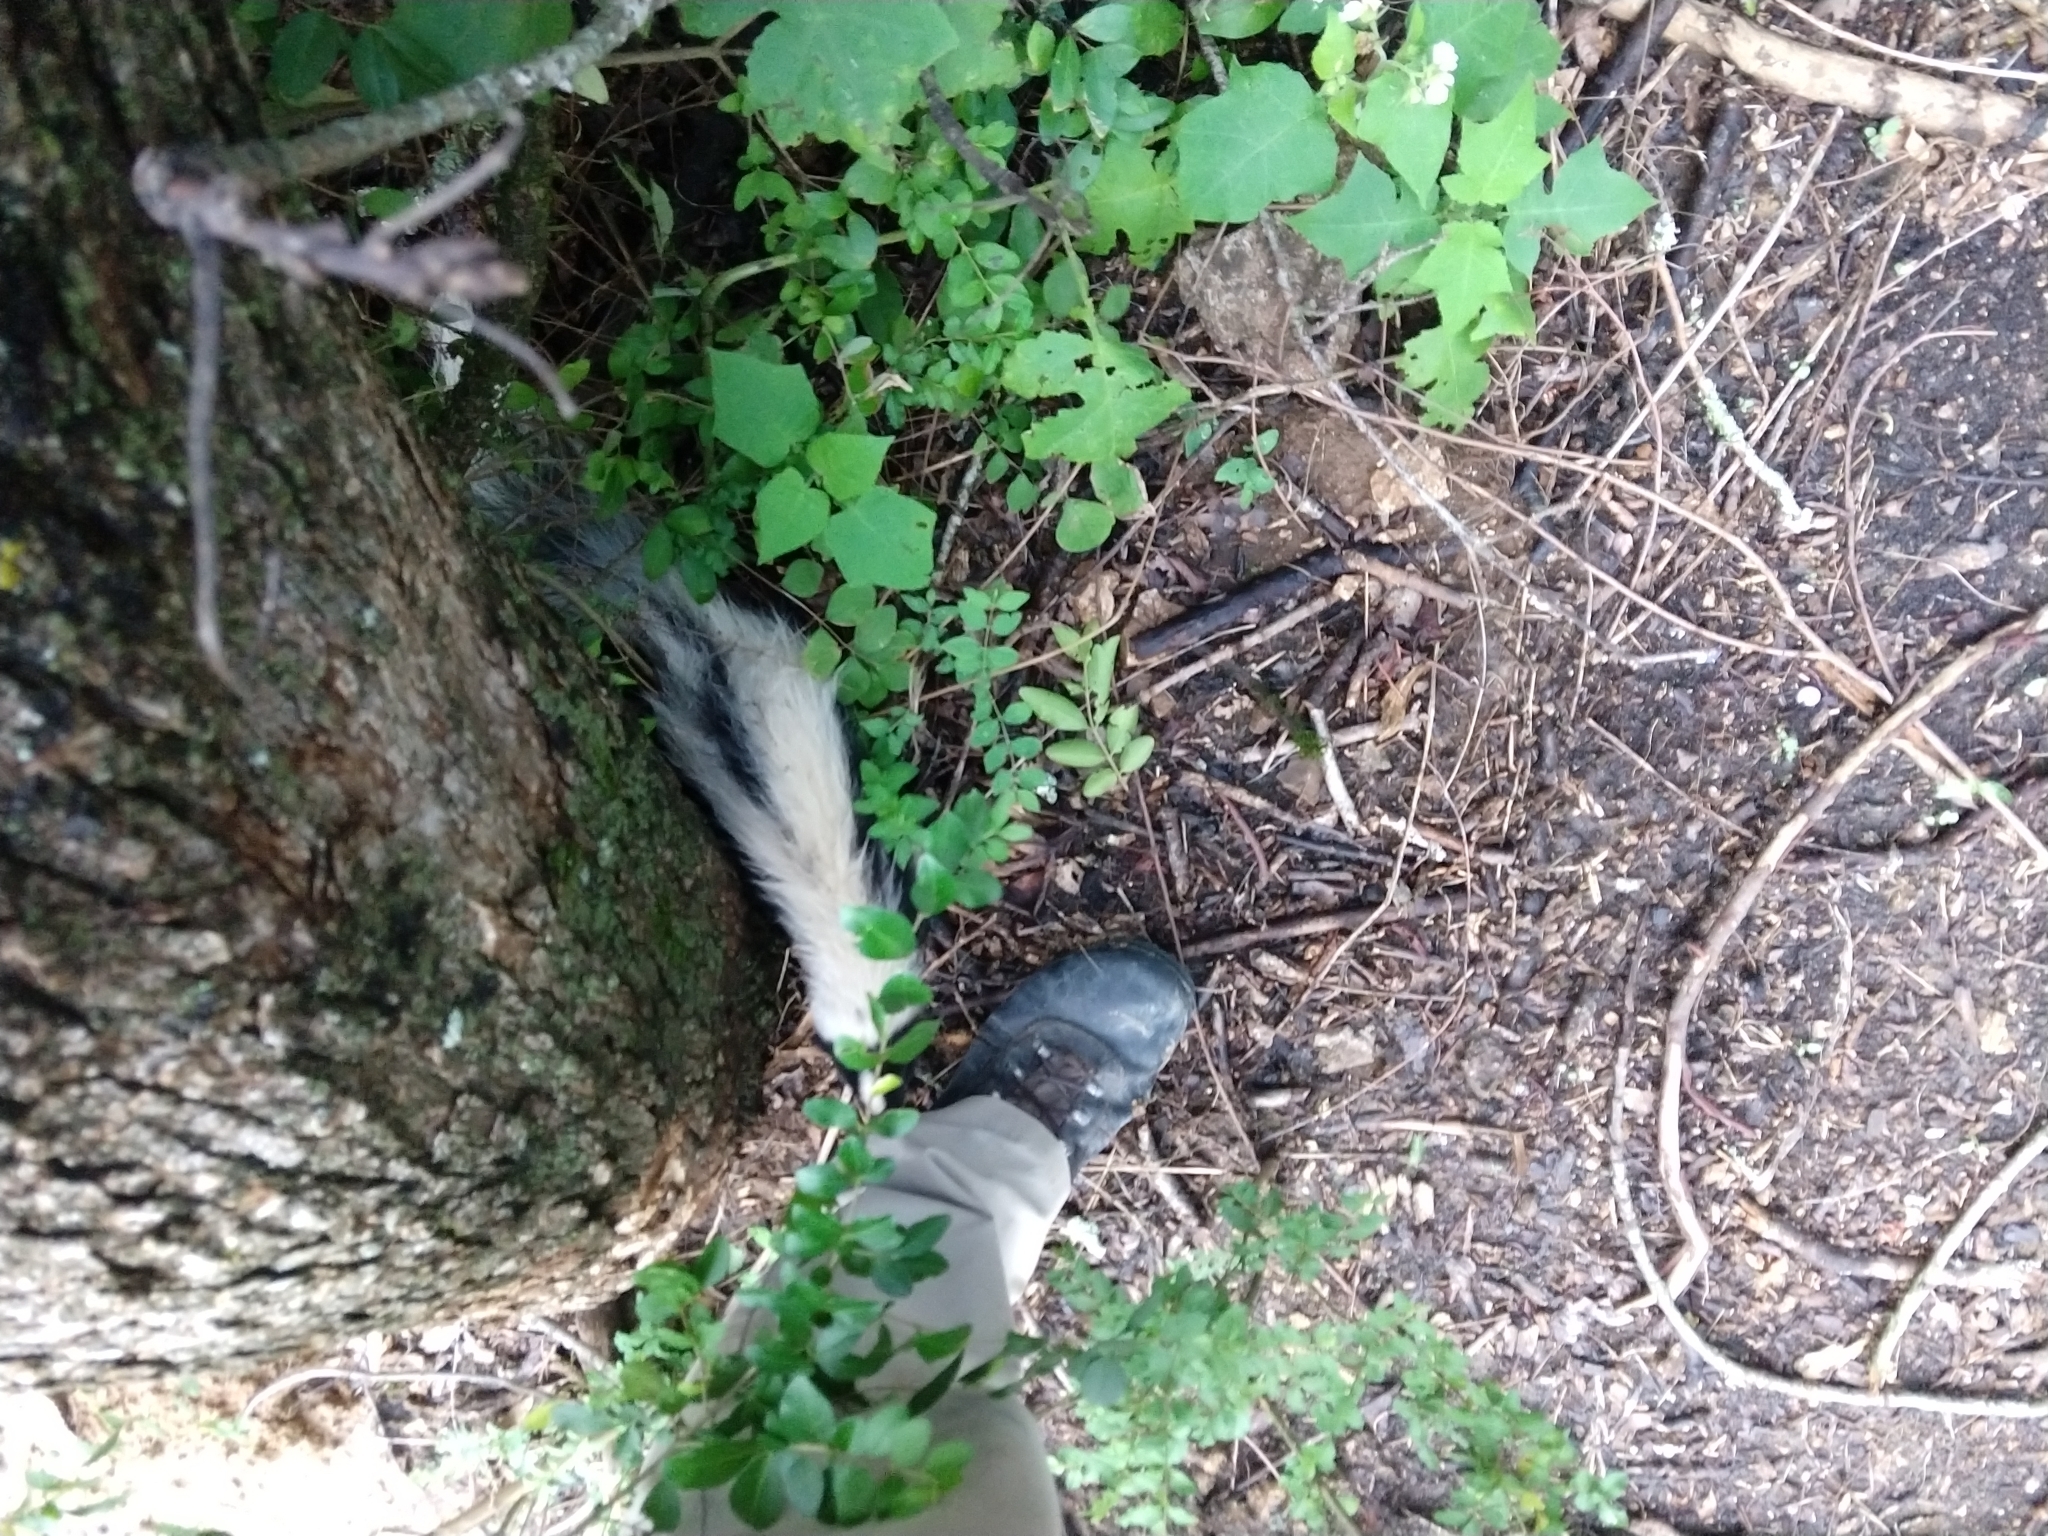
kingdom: Animalia
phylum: Chordata
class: Mammalia
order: Carnivora
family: Mephitidae
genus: Mephitis
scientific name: Mephitis mephitis
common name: Striped skunk
